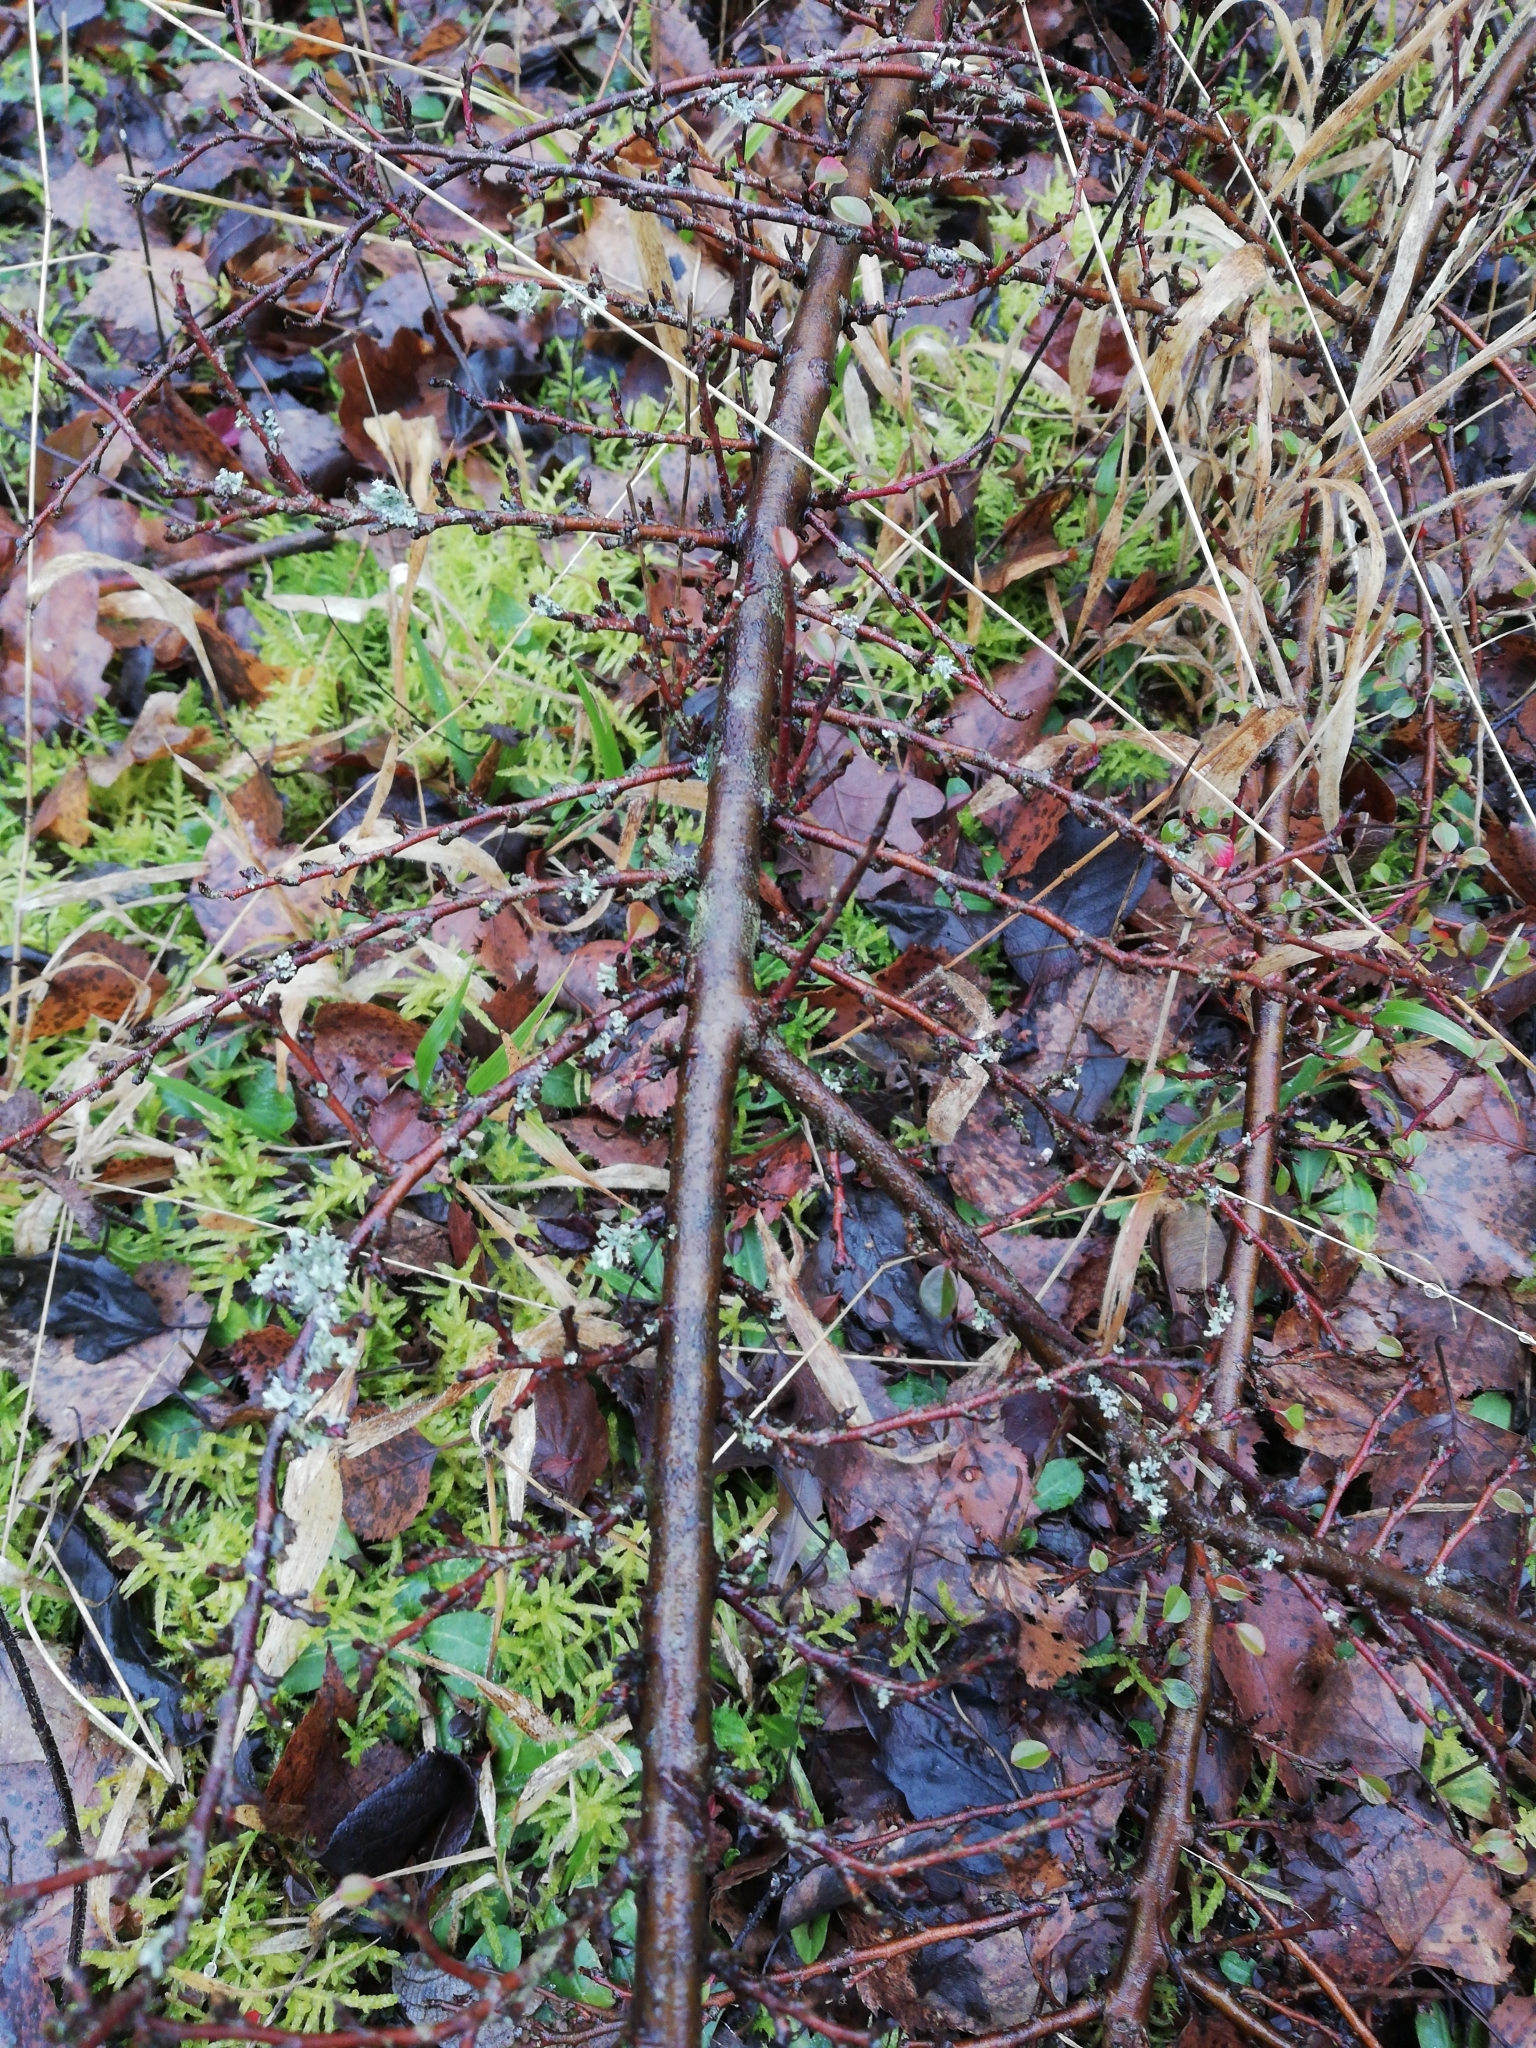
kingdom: Plantae
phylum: Tracheophyta
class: Magnoliopsida
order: Rosales
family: Rosaceae
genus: Cotoneaster
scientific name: Cotoneaster horizontalis
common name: Wall cotoneaster
